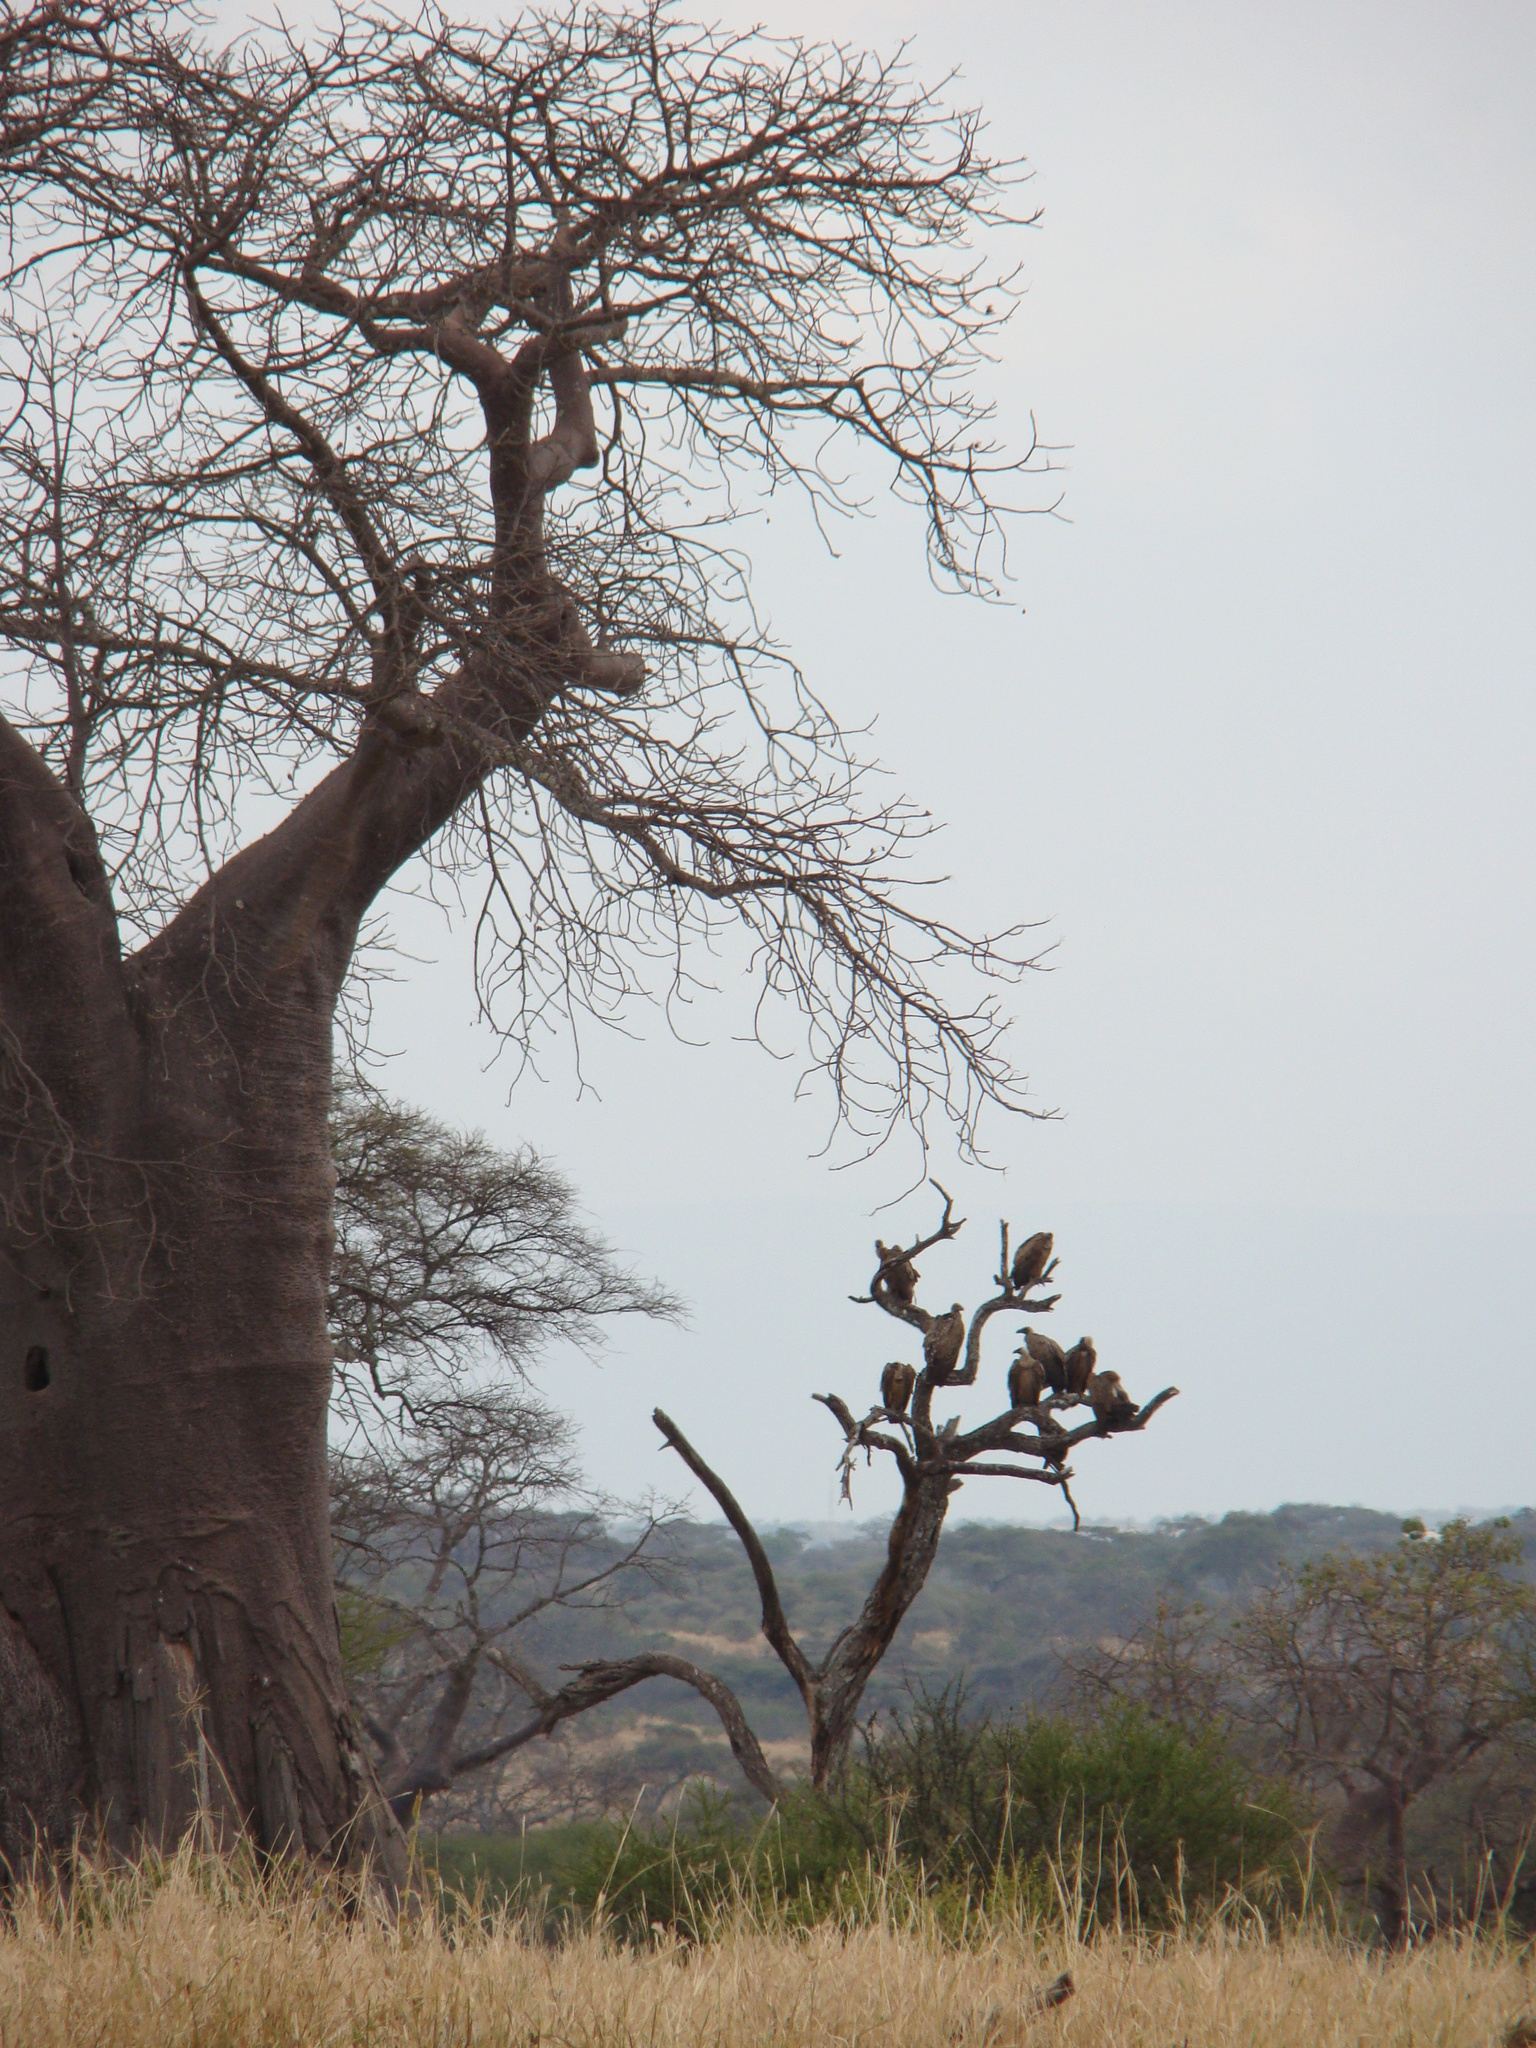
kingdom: Animalia
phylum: Chordata
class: Aves
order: Accipitriformes
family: Accipitridae
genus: Gyps
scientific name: Gyps africanus
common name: White-backed vulture
